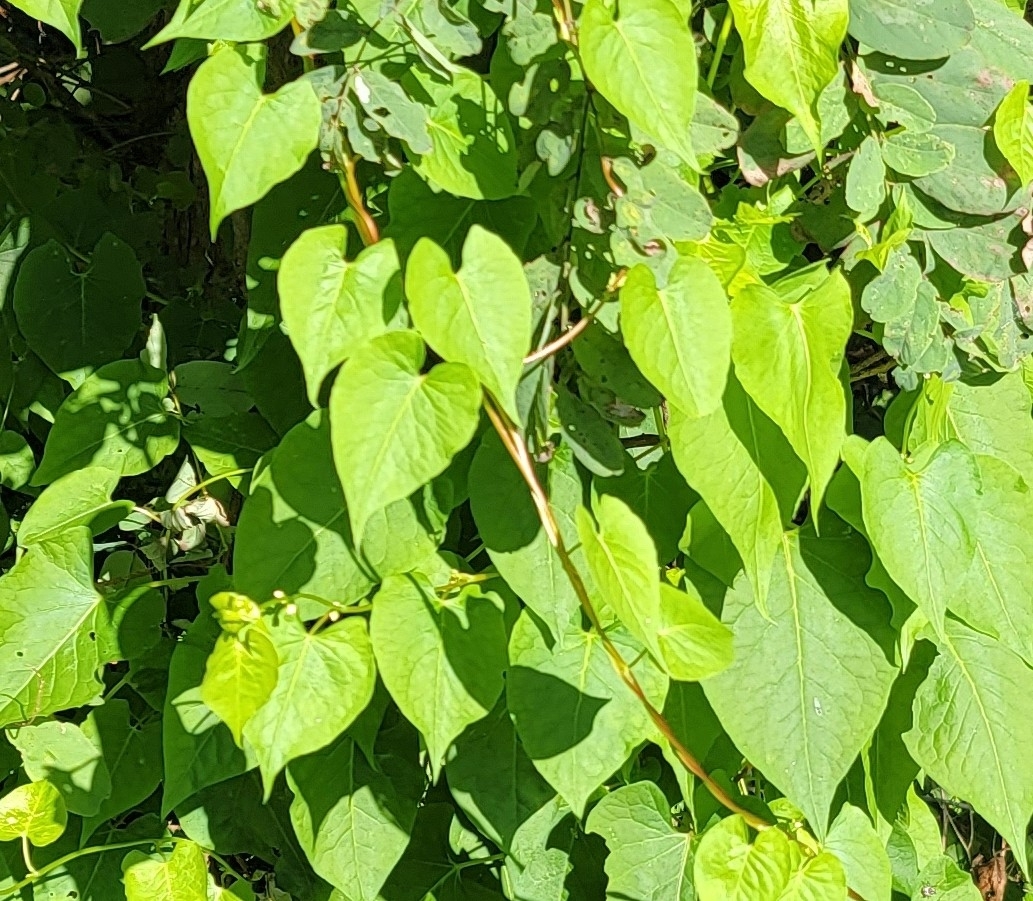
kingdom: Plantae
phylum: Tracheophyta
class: Magnoliopsida
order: Caryophyllales
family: Polygonaceae
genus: Fallopia
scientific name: Fallopia scandens
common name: Climbing false buckwheat
